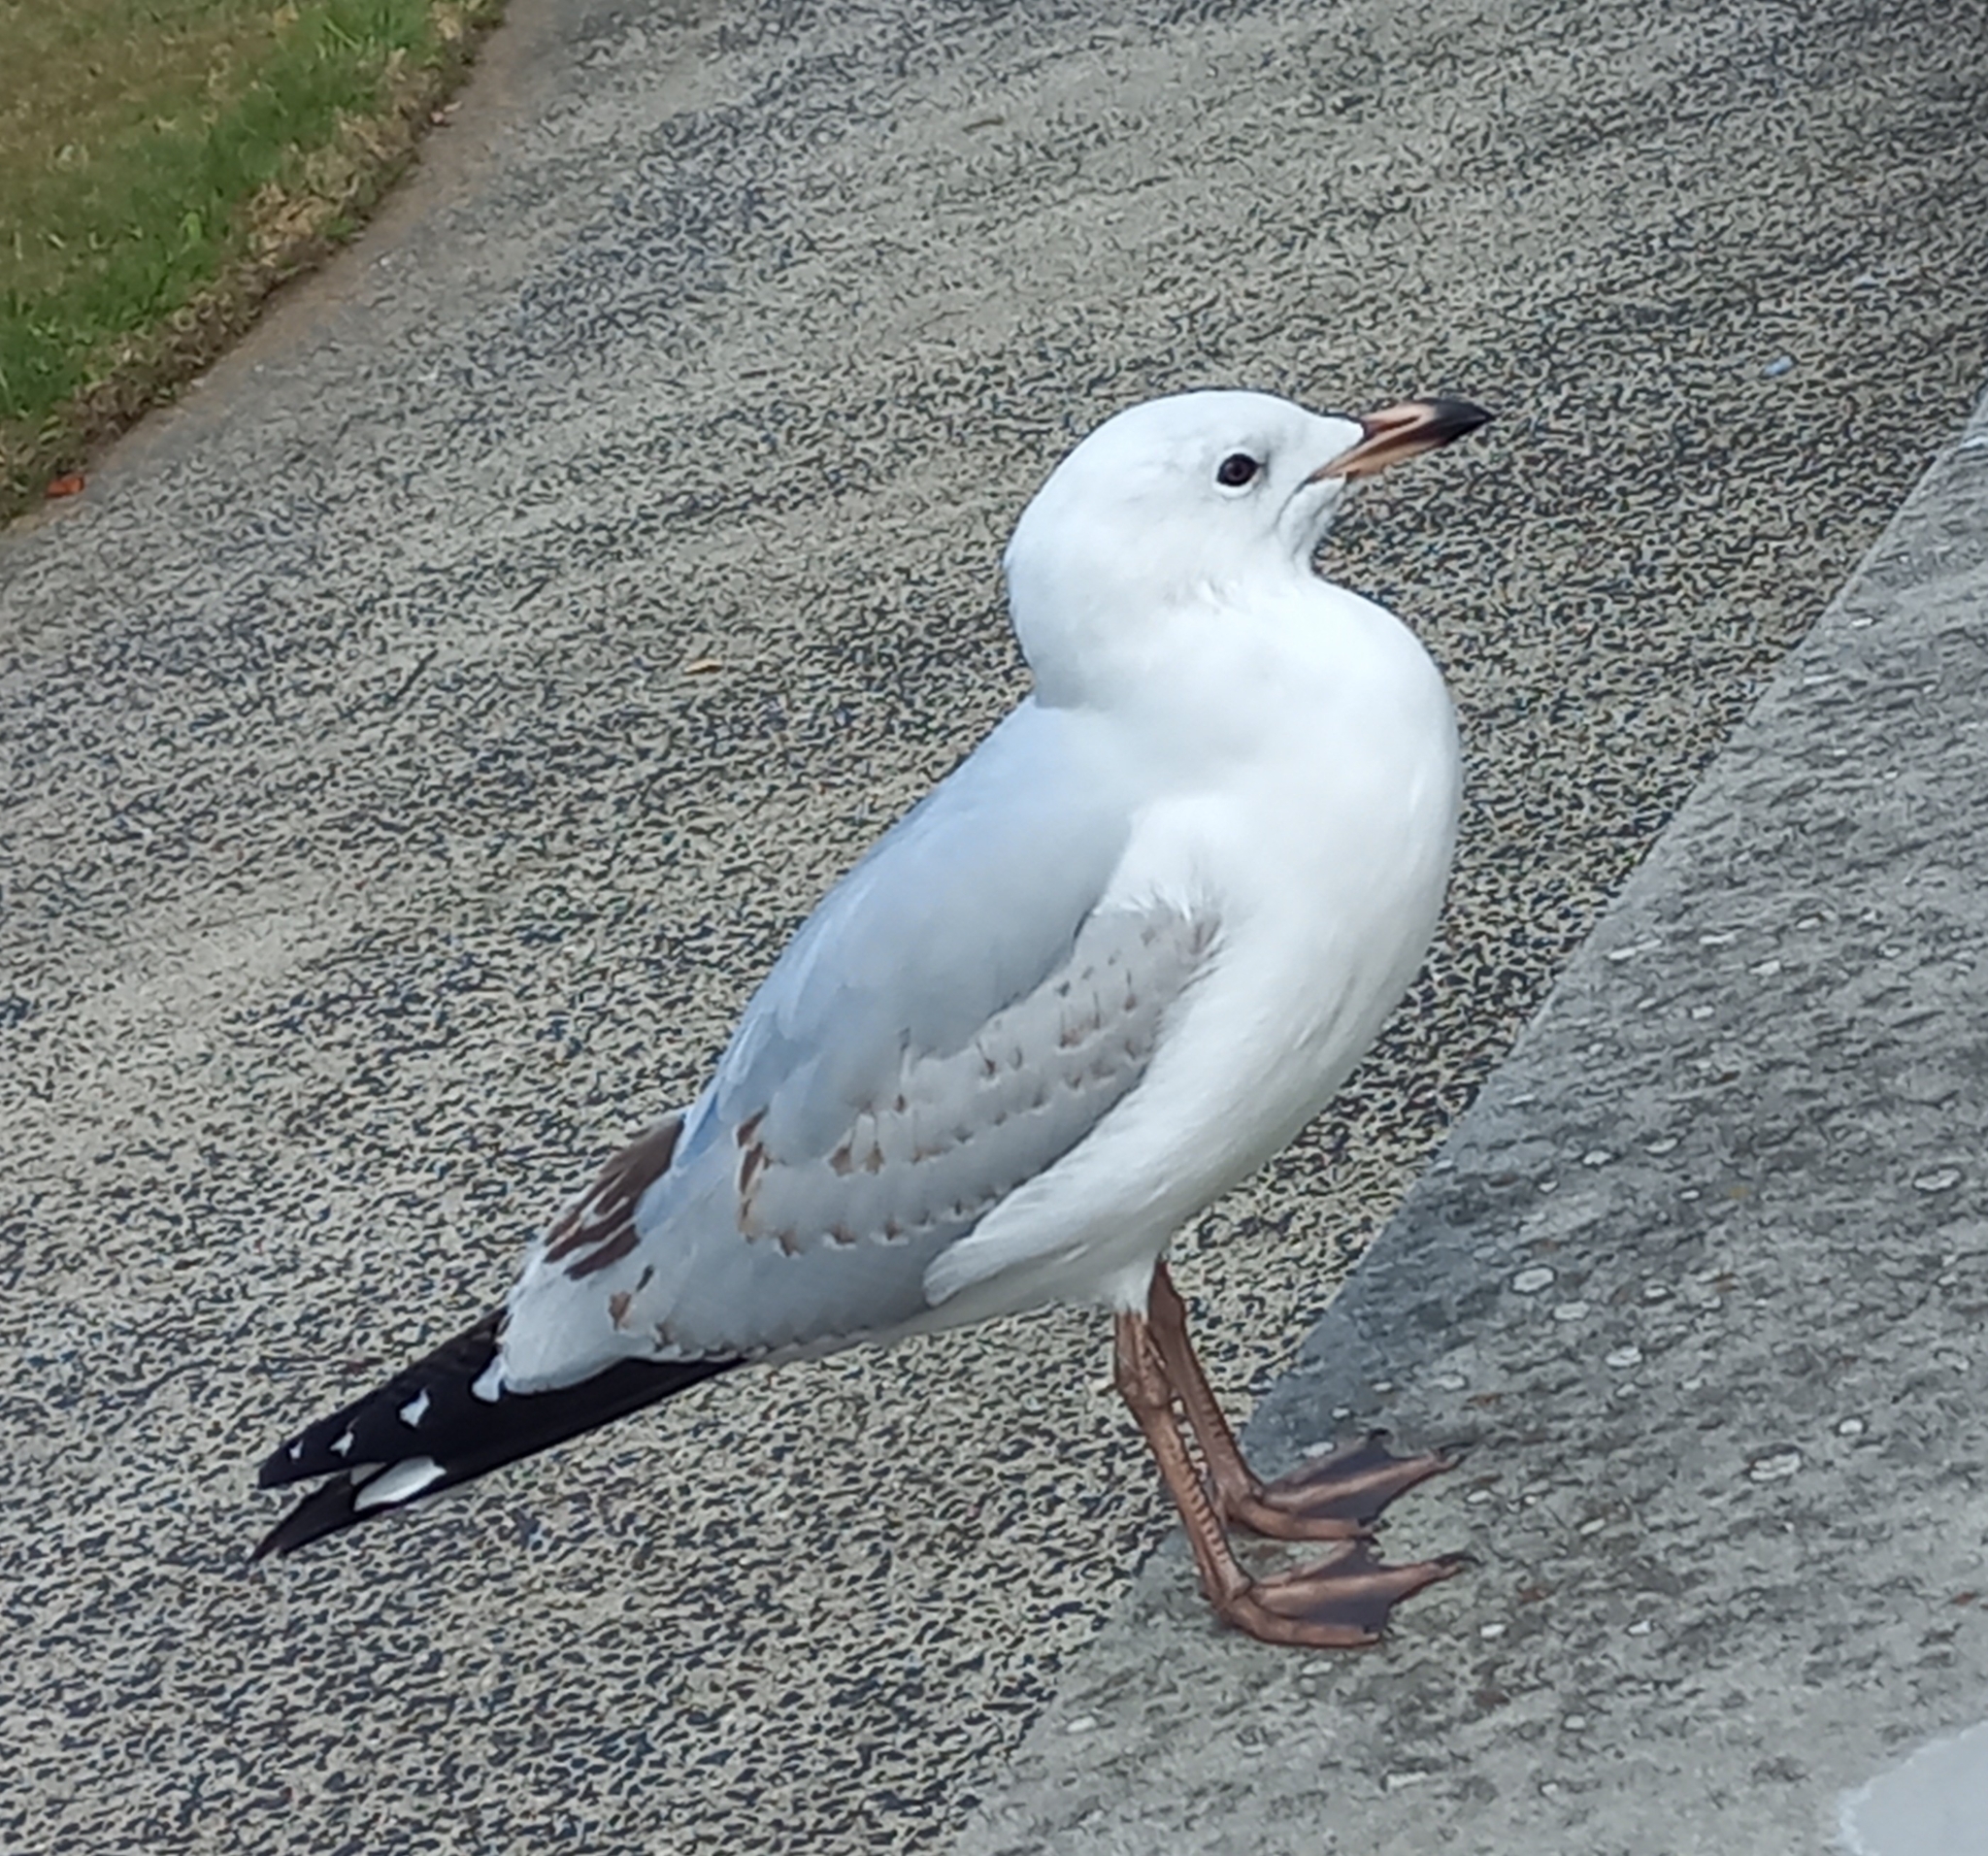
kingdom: Animalia
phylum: Chordata
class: Aves
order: Charadriiformes
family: Laridae
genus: Chroicocephalus
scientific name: Chroicocephalus novaehollandiae
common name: Silver gull
